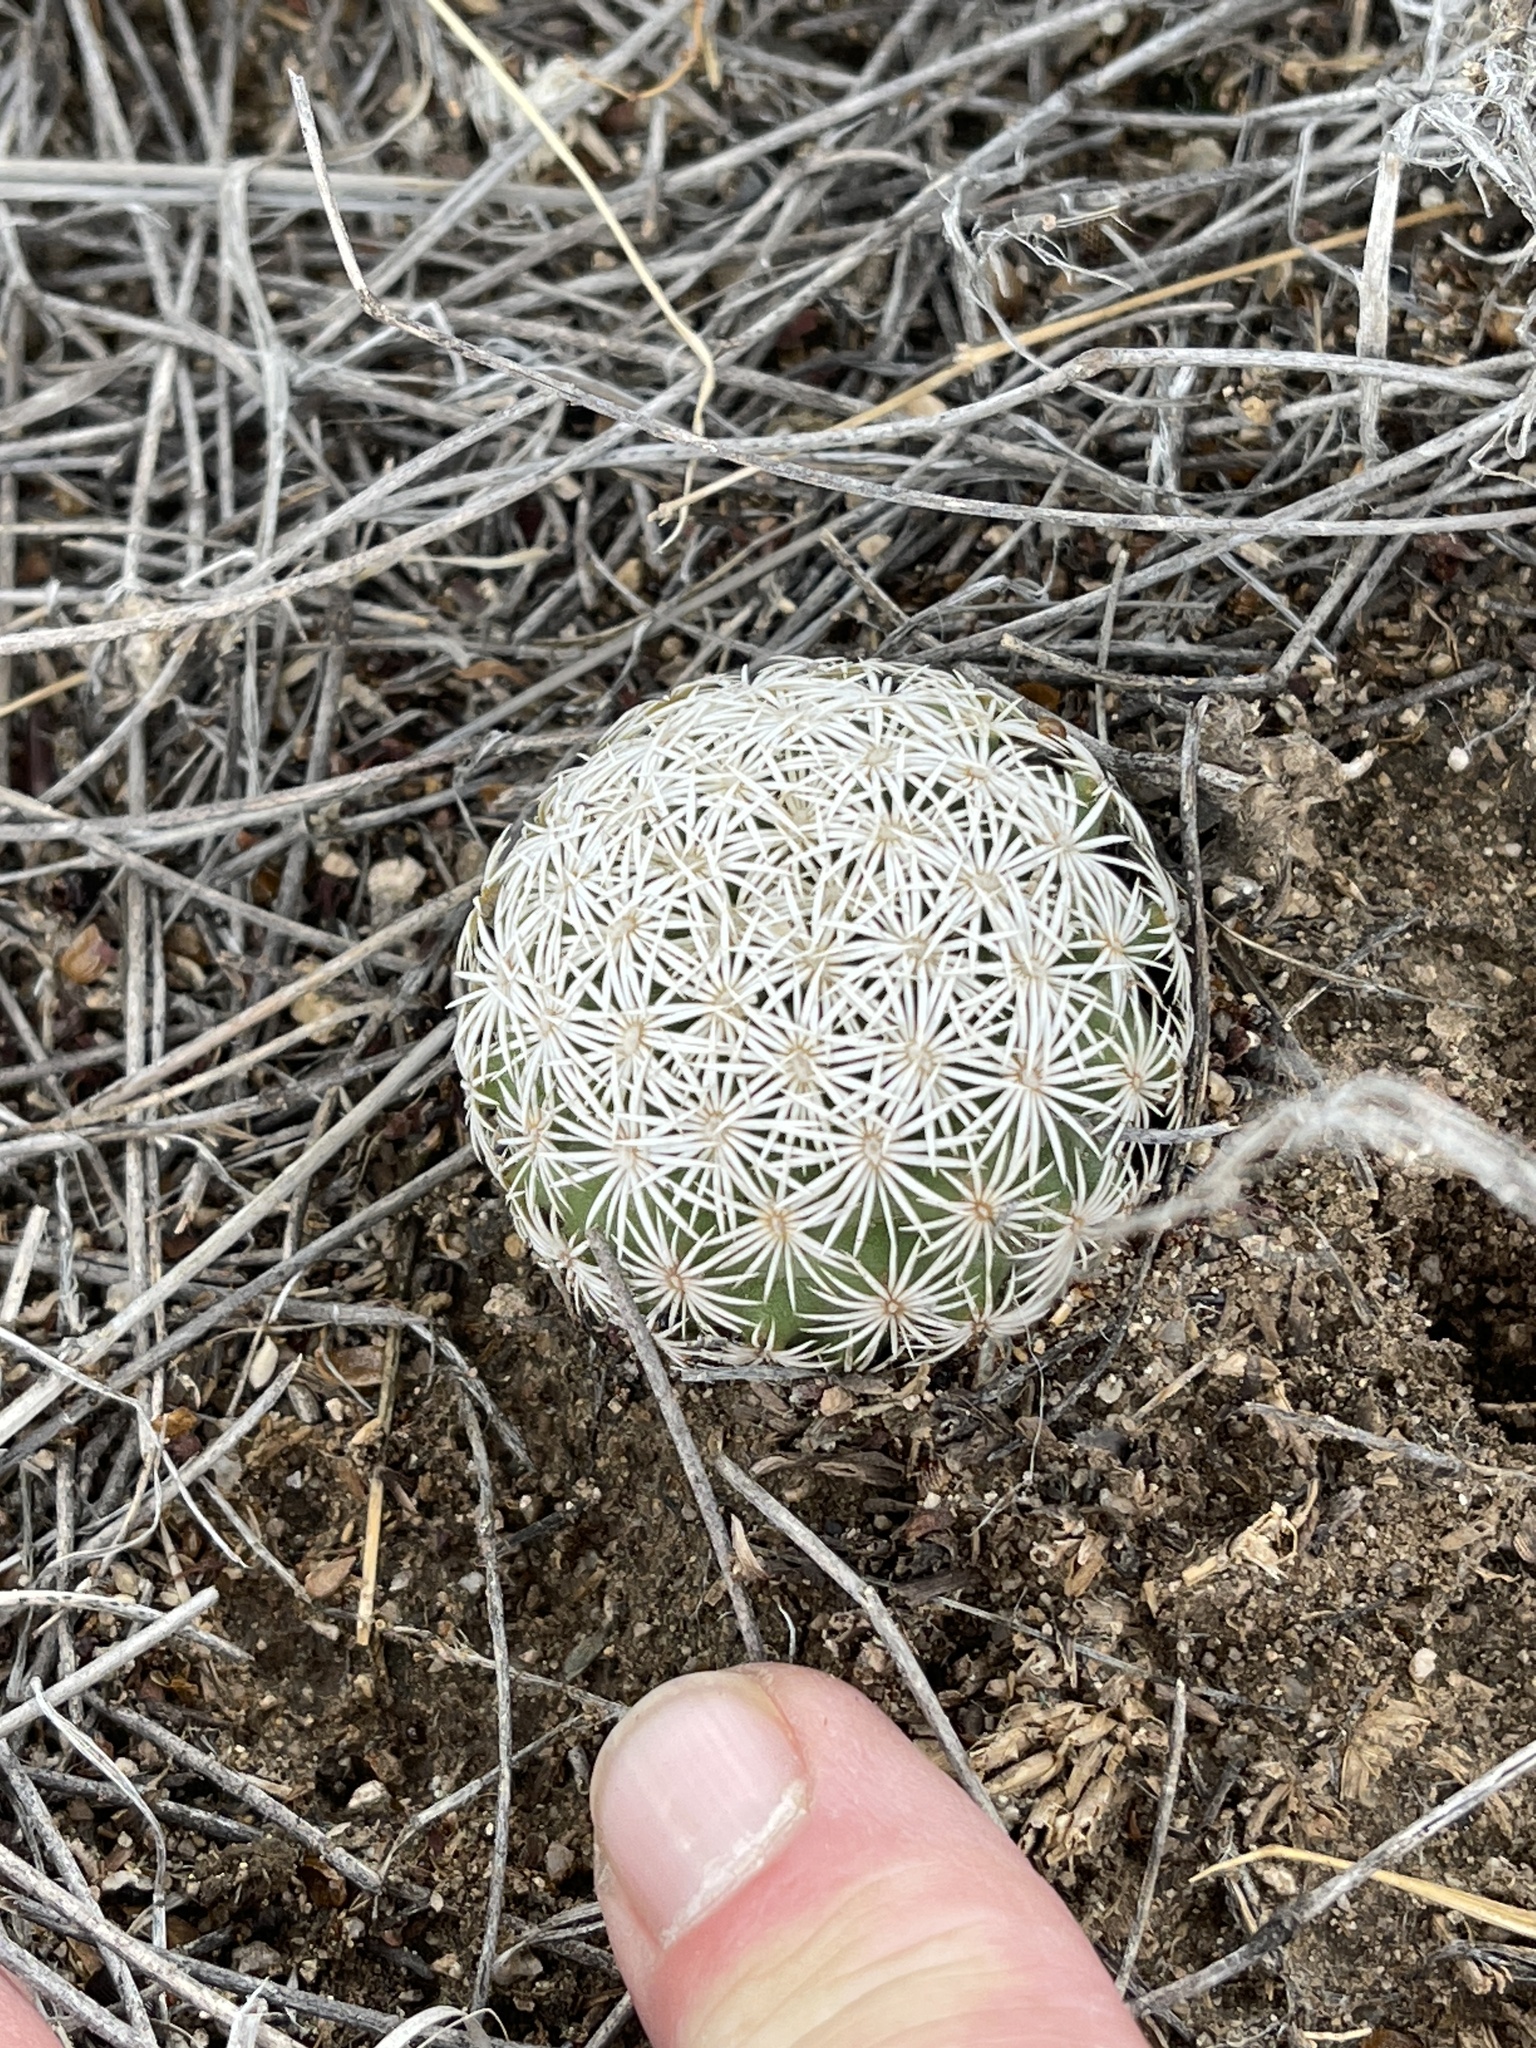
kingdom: Plantae
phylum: Tracheophyta
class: Magnoliopsida
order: Caryophyllales
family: Cactaceae
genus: Sclerocactus
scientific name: Sclerocactus johnsonii
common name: Eight-spine fishhook cactus
